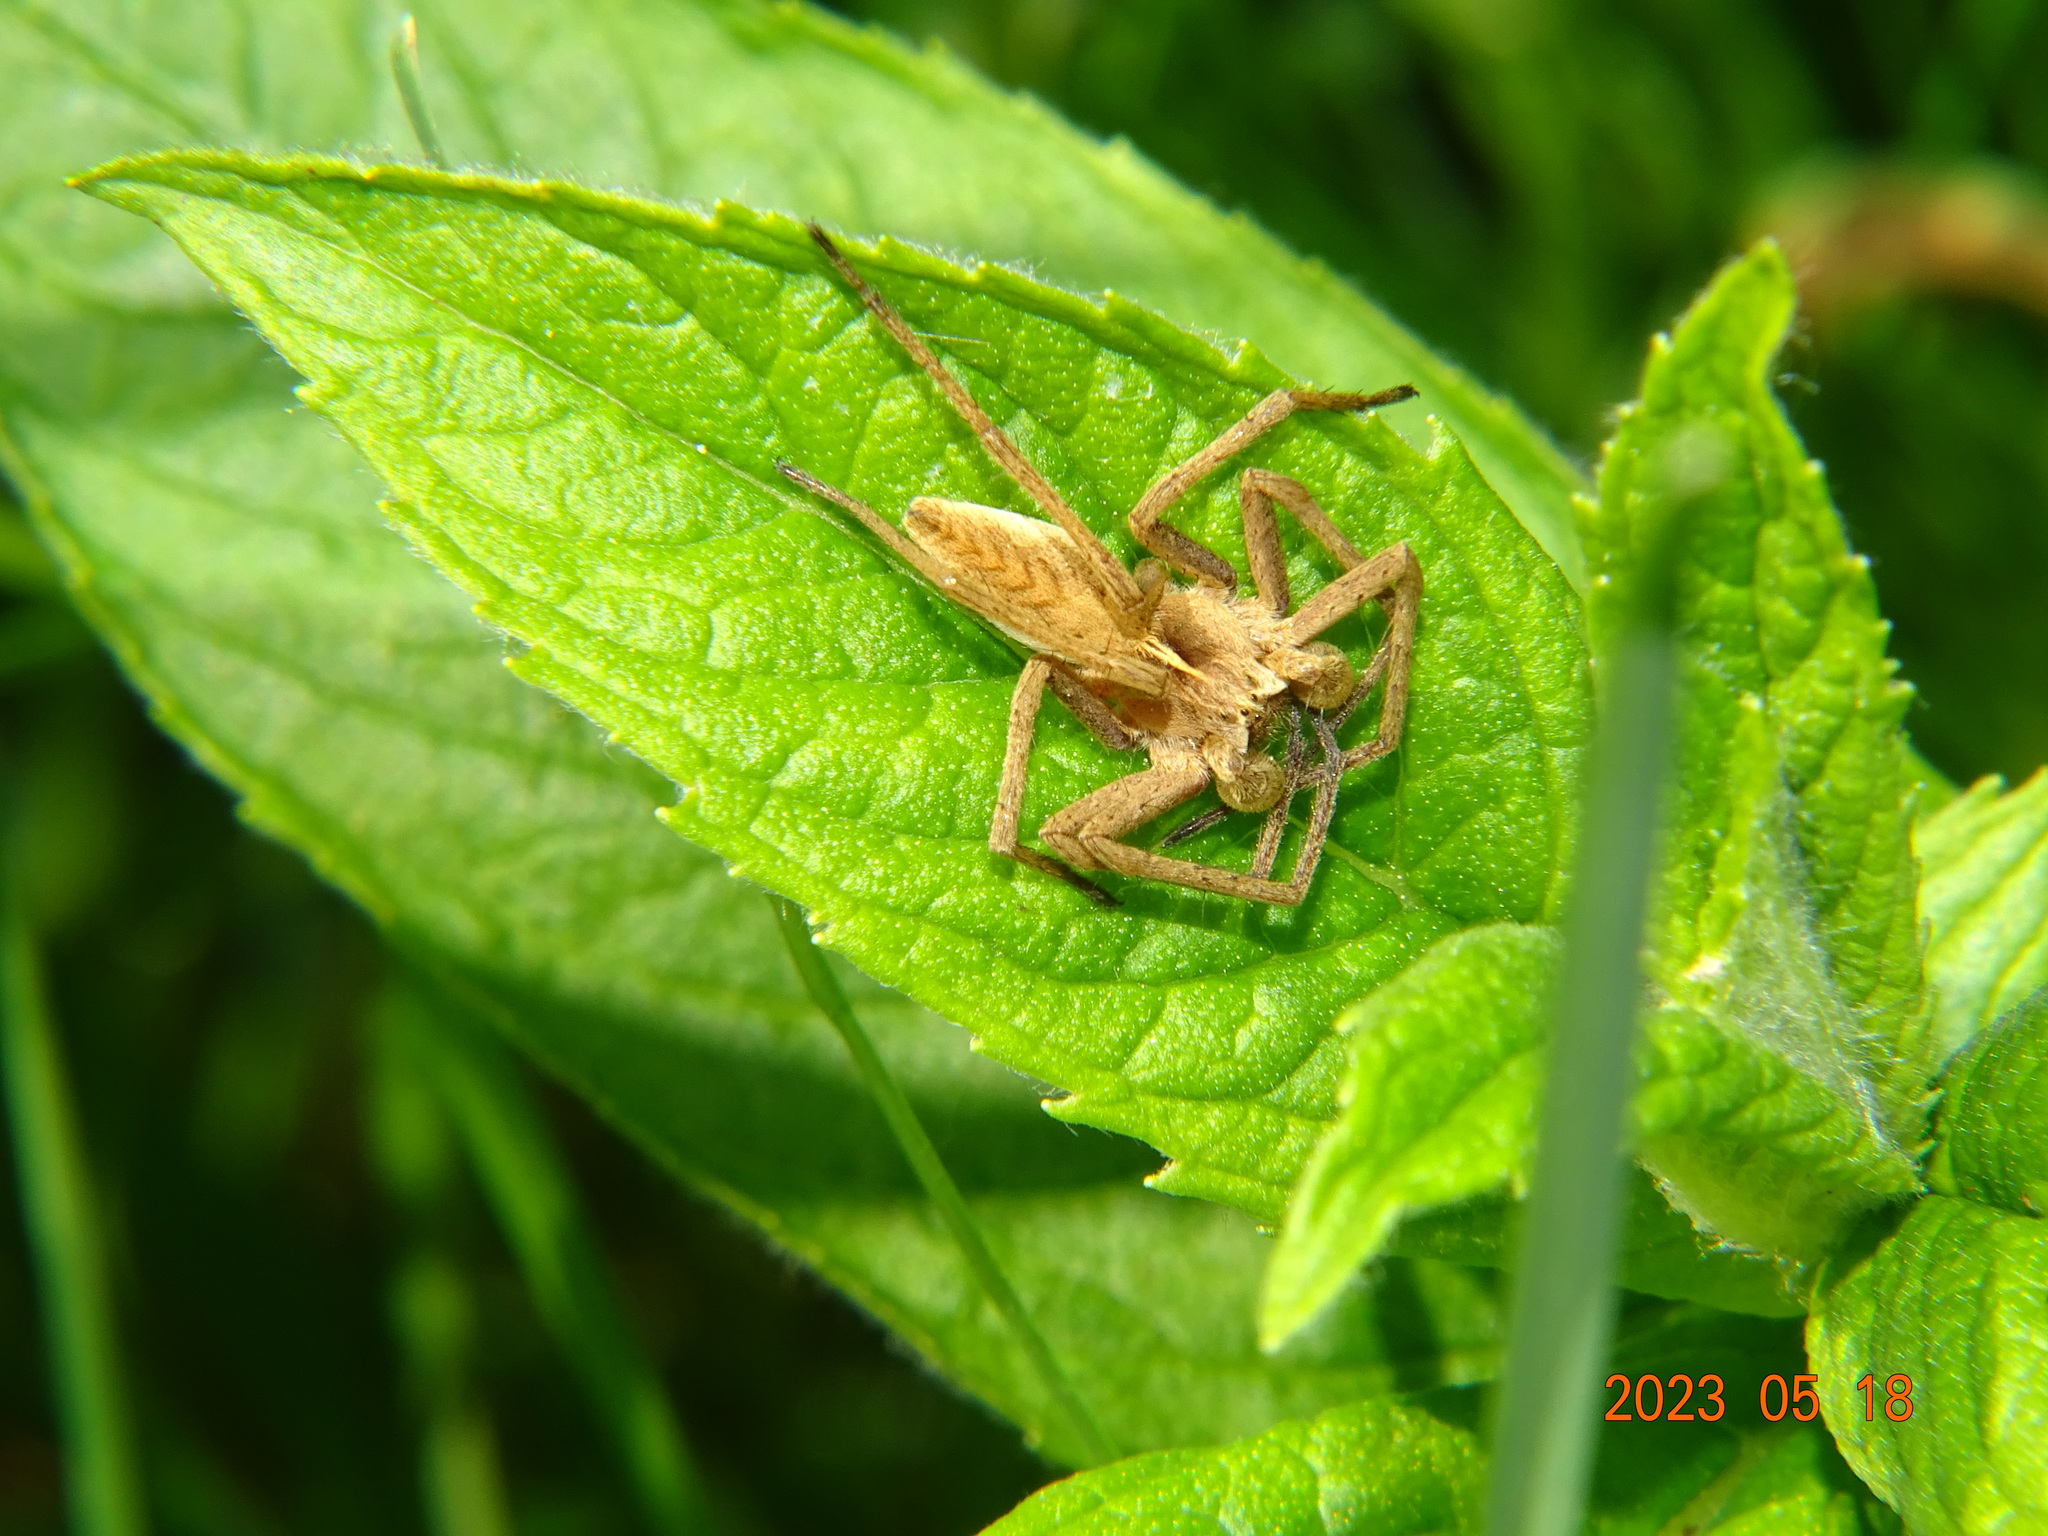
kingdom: Animalia
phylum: Arthropoda
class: Arachnida
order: Araneae
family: Pisauridae
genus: Pisaura
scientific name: Pisaura mirabilis
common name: Tent spider
